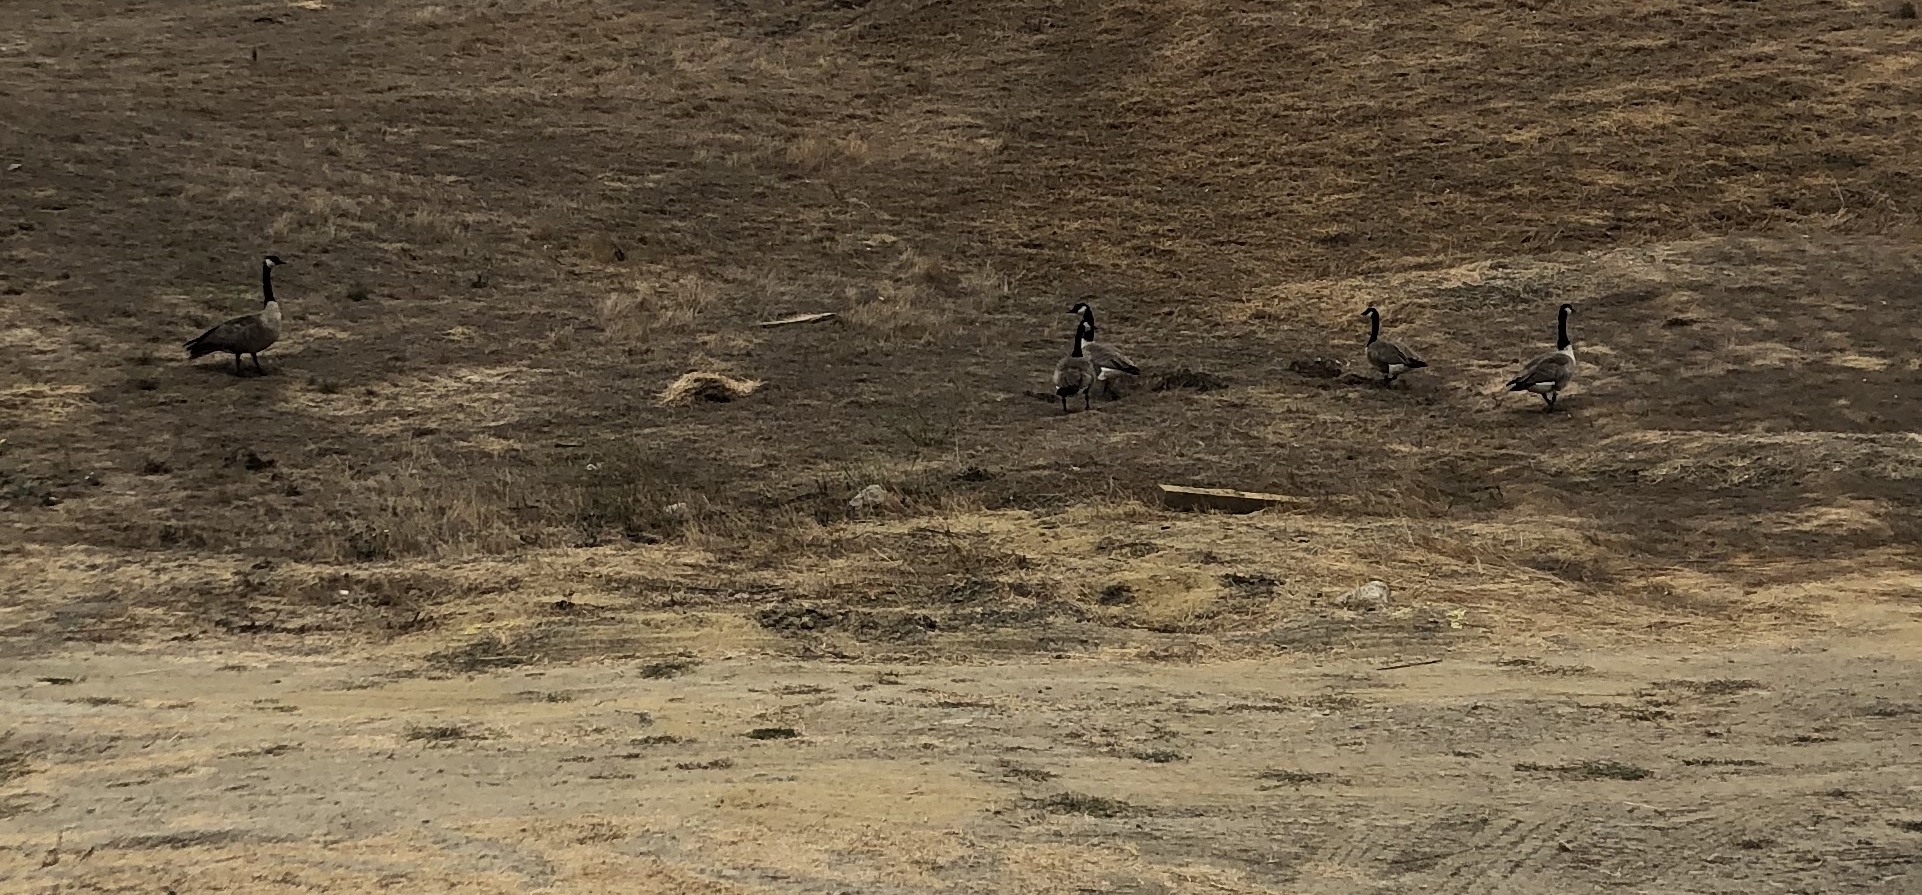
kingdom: Animalia
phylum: Chordata
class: Aves
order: Anseriformes
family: Anatidae
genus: Branta
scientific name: Branta canadensis
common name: Canada goose
